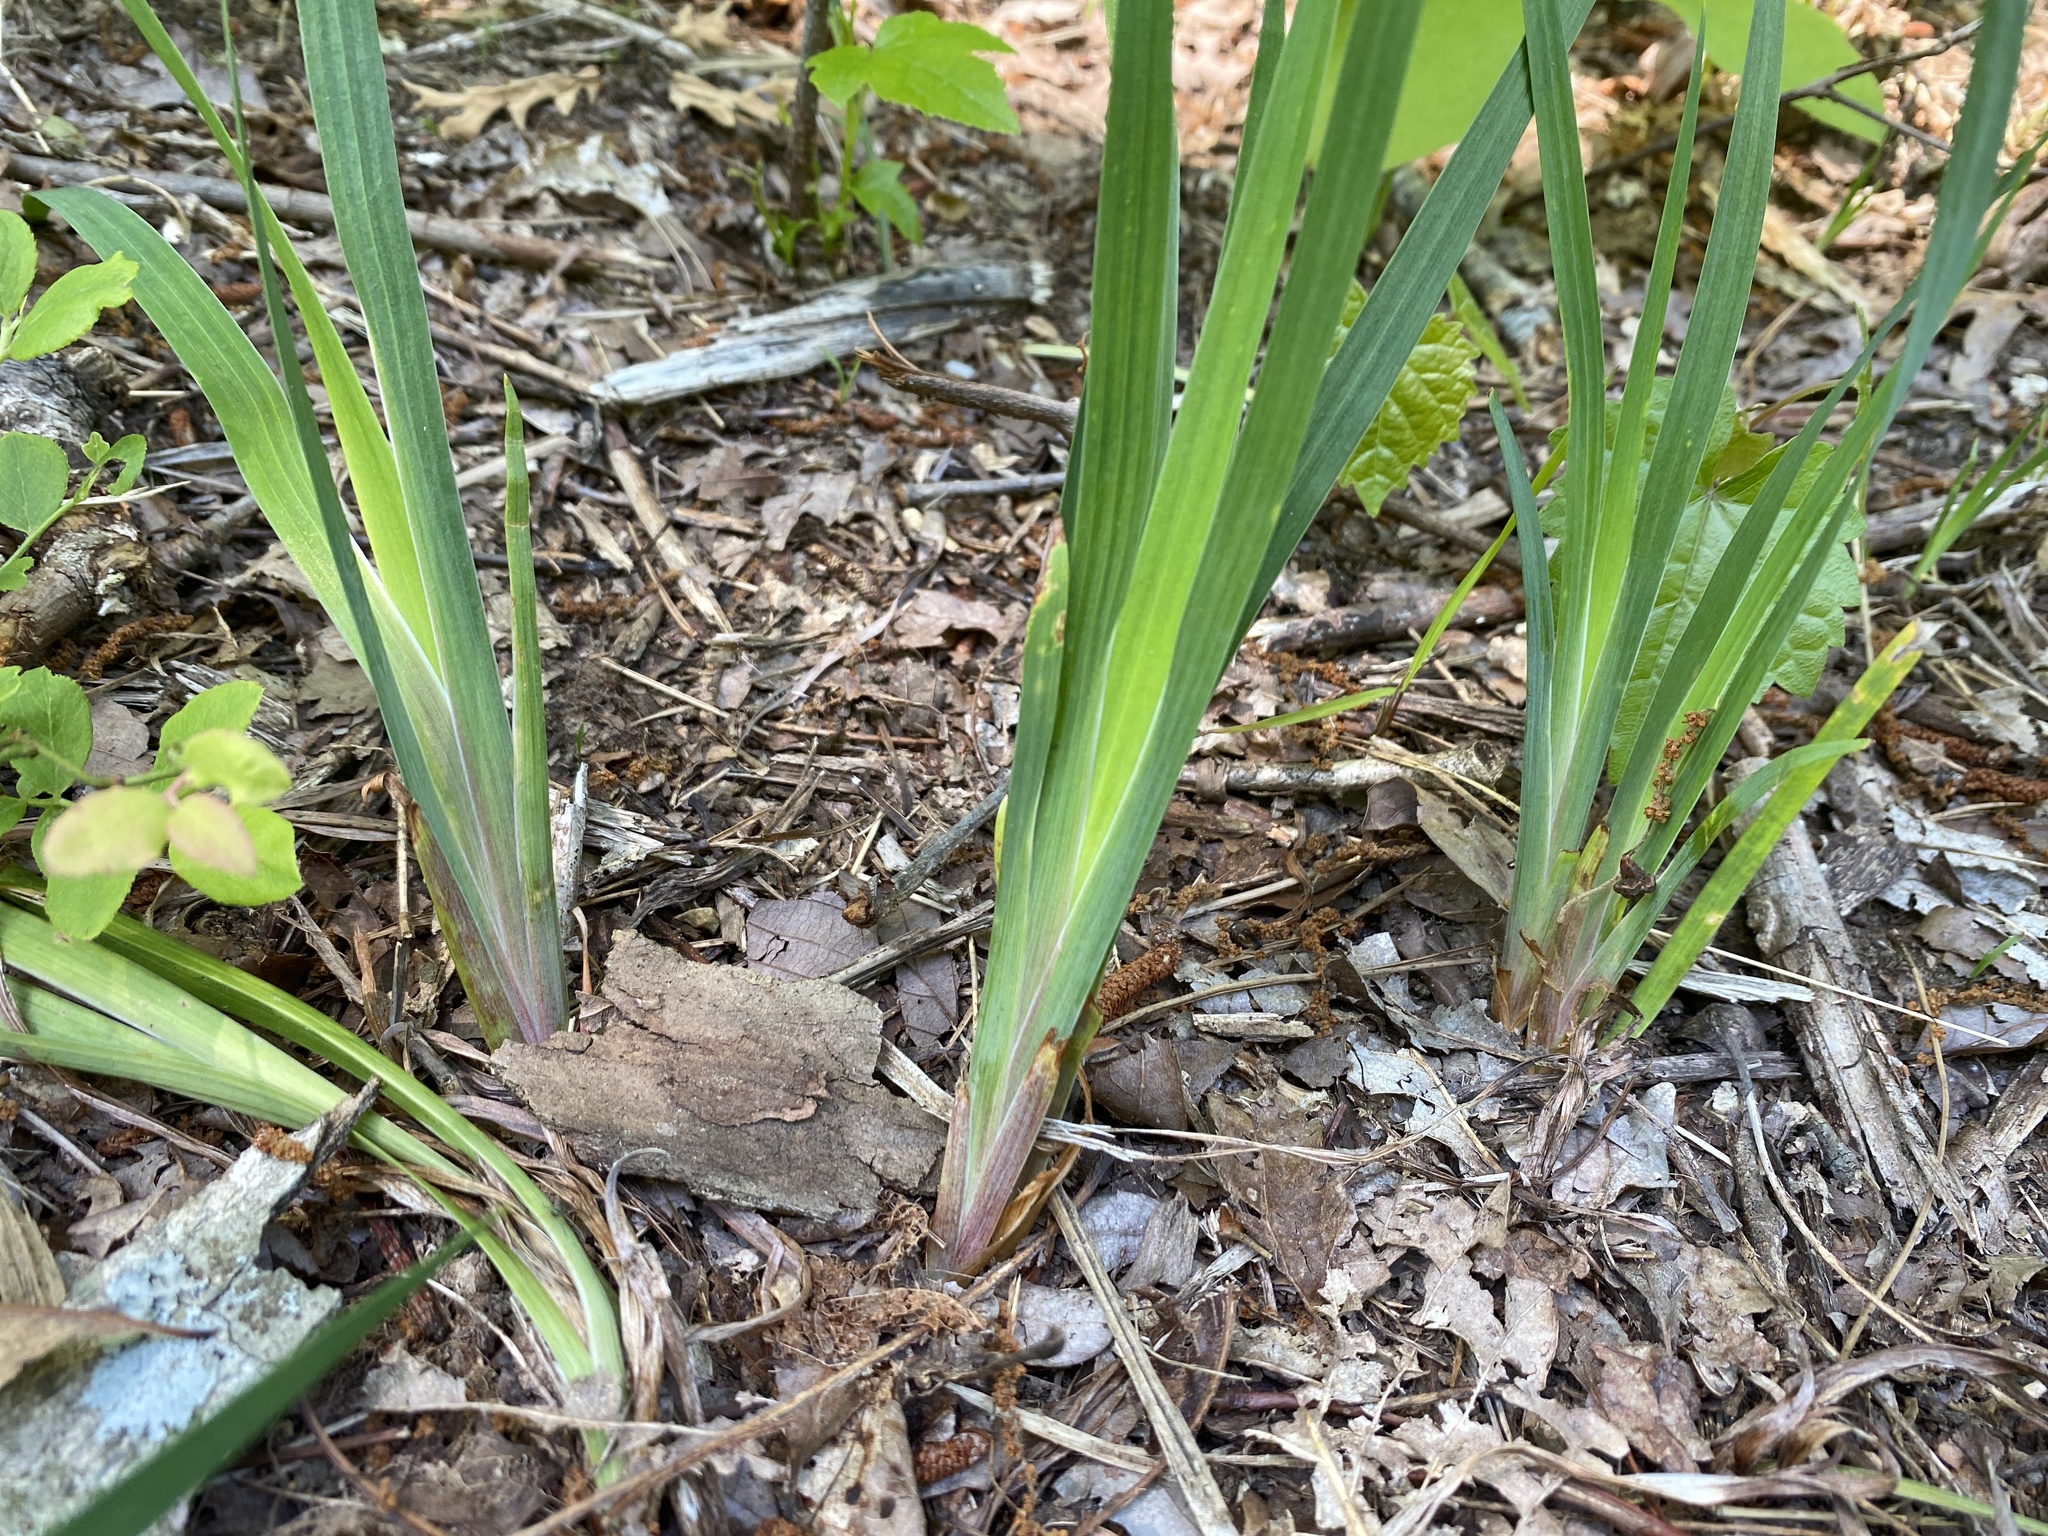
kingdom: Plantae
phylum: Tracheophyta
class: Liliopsida
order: Asparagales
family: Iridaceae
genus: Iris
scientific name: Iris verna
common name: Dwarf iris
